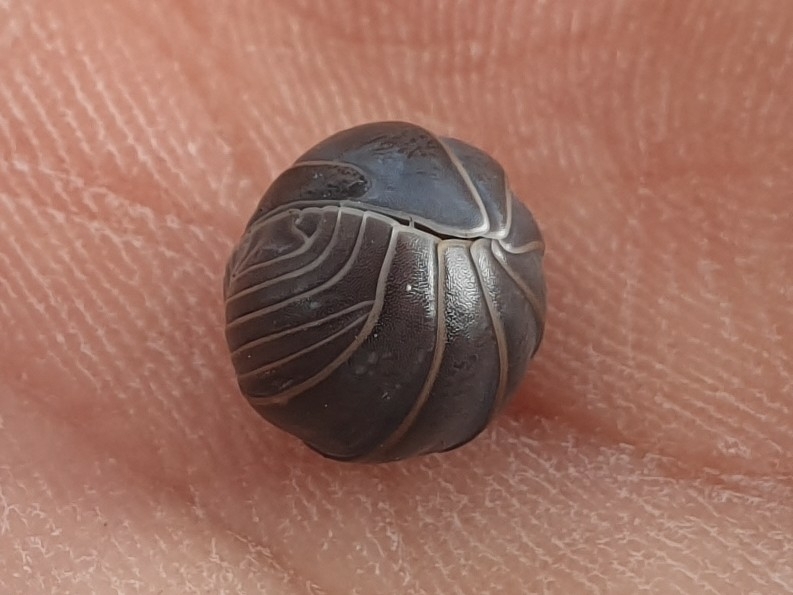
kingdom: Animalia
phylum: Arthropoda
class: Malacostraca
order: Isopoda
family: Armadillidae
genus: Armadillo
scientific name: Armadillo officinalis
